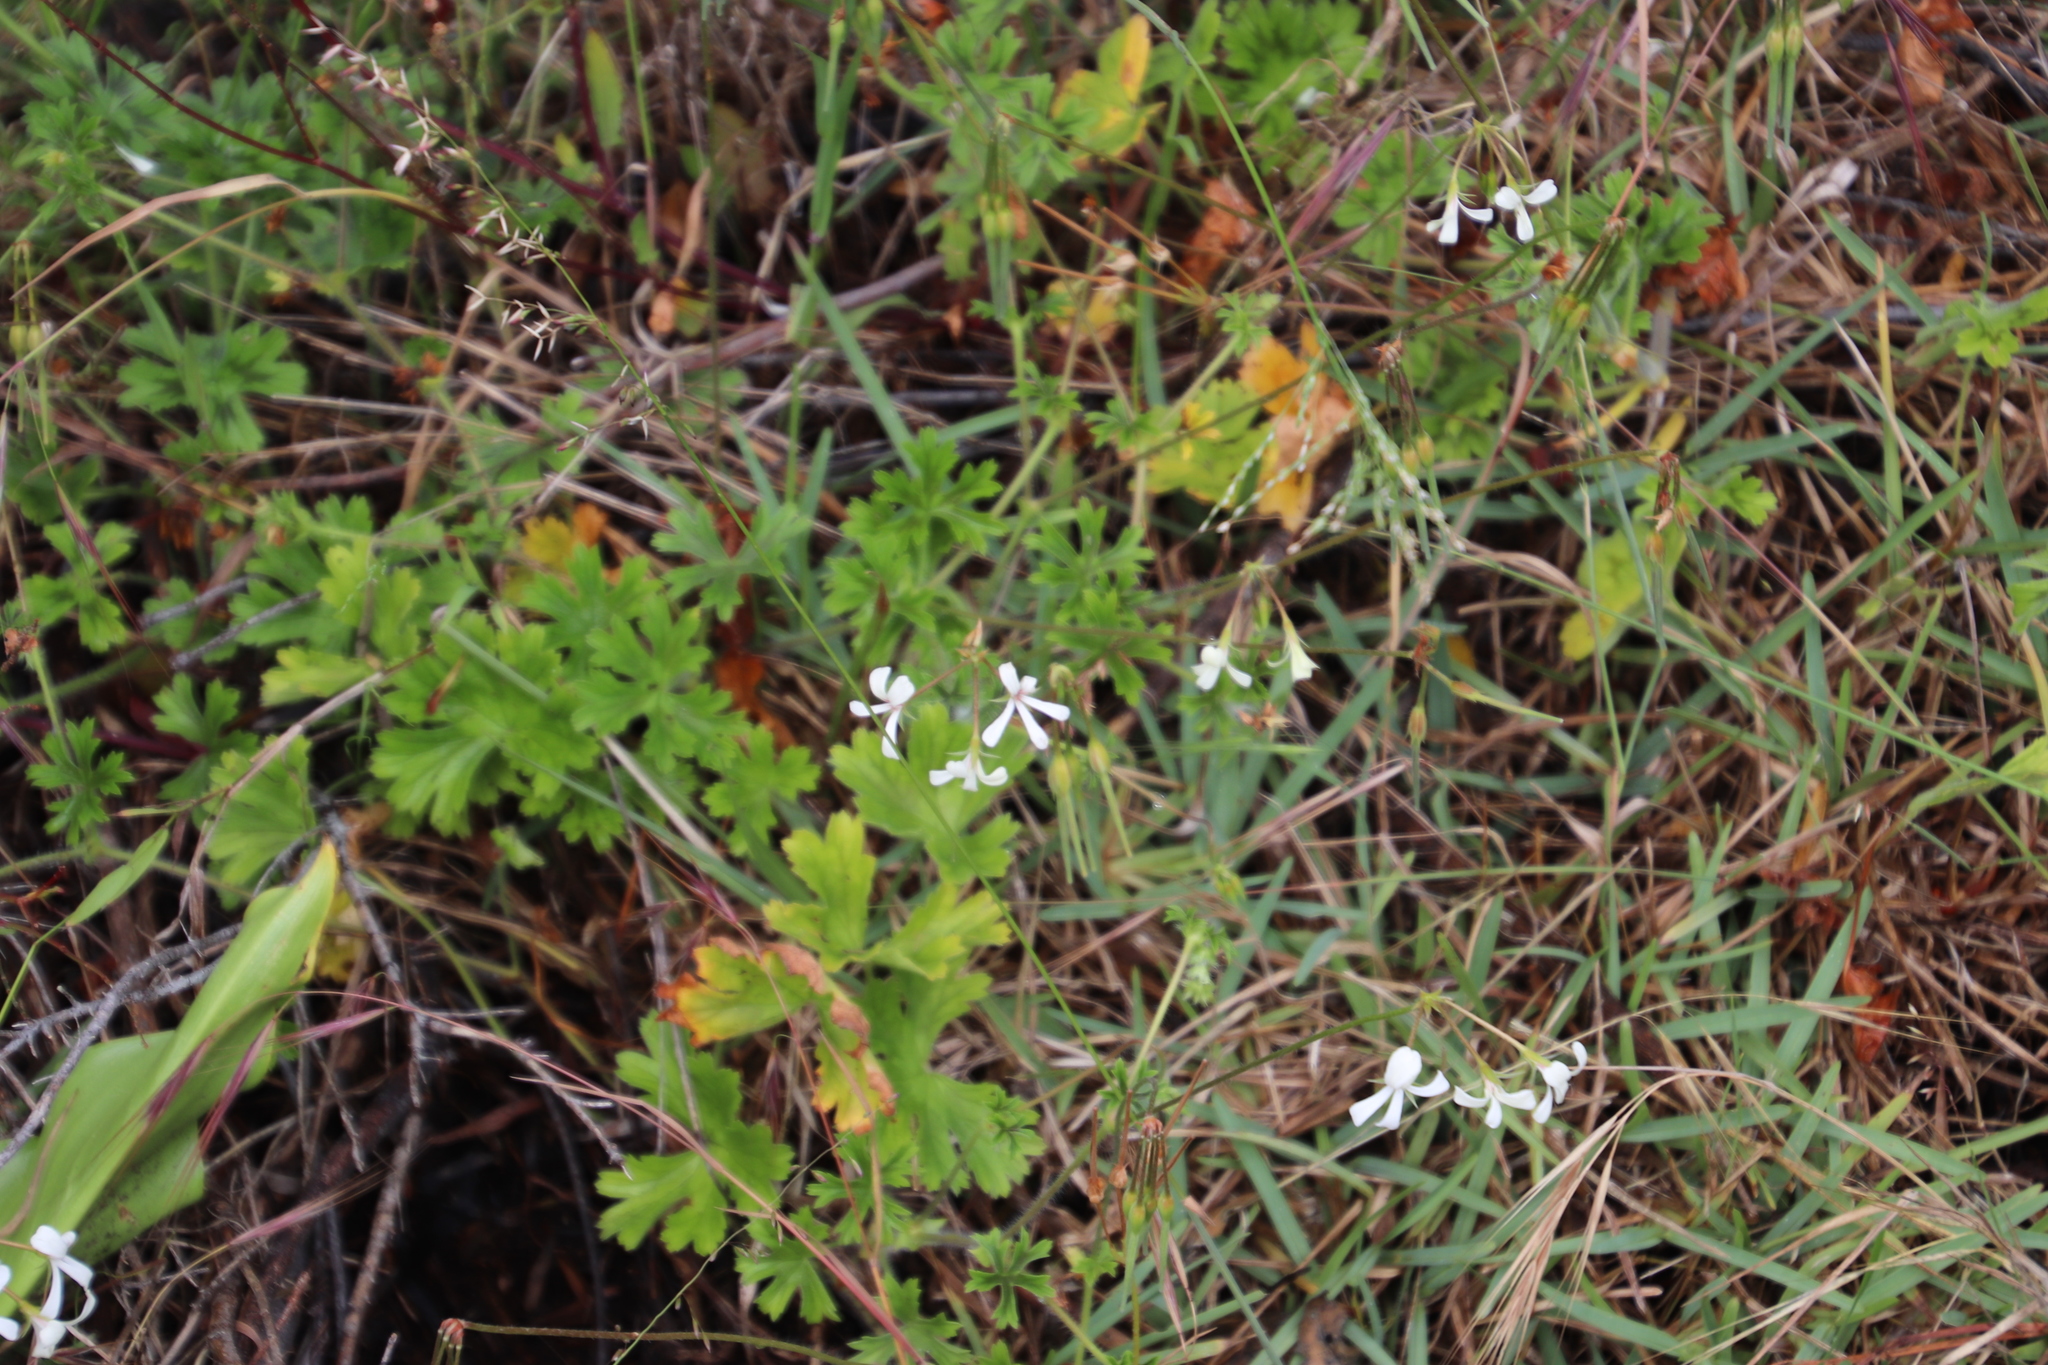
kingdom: Plantae
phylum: Tracheophyta
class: Magnoliopsida
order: Geraniales
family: Geraniaceae
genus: Pelargonium
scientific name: Pelargonium alchemilloides
